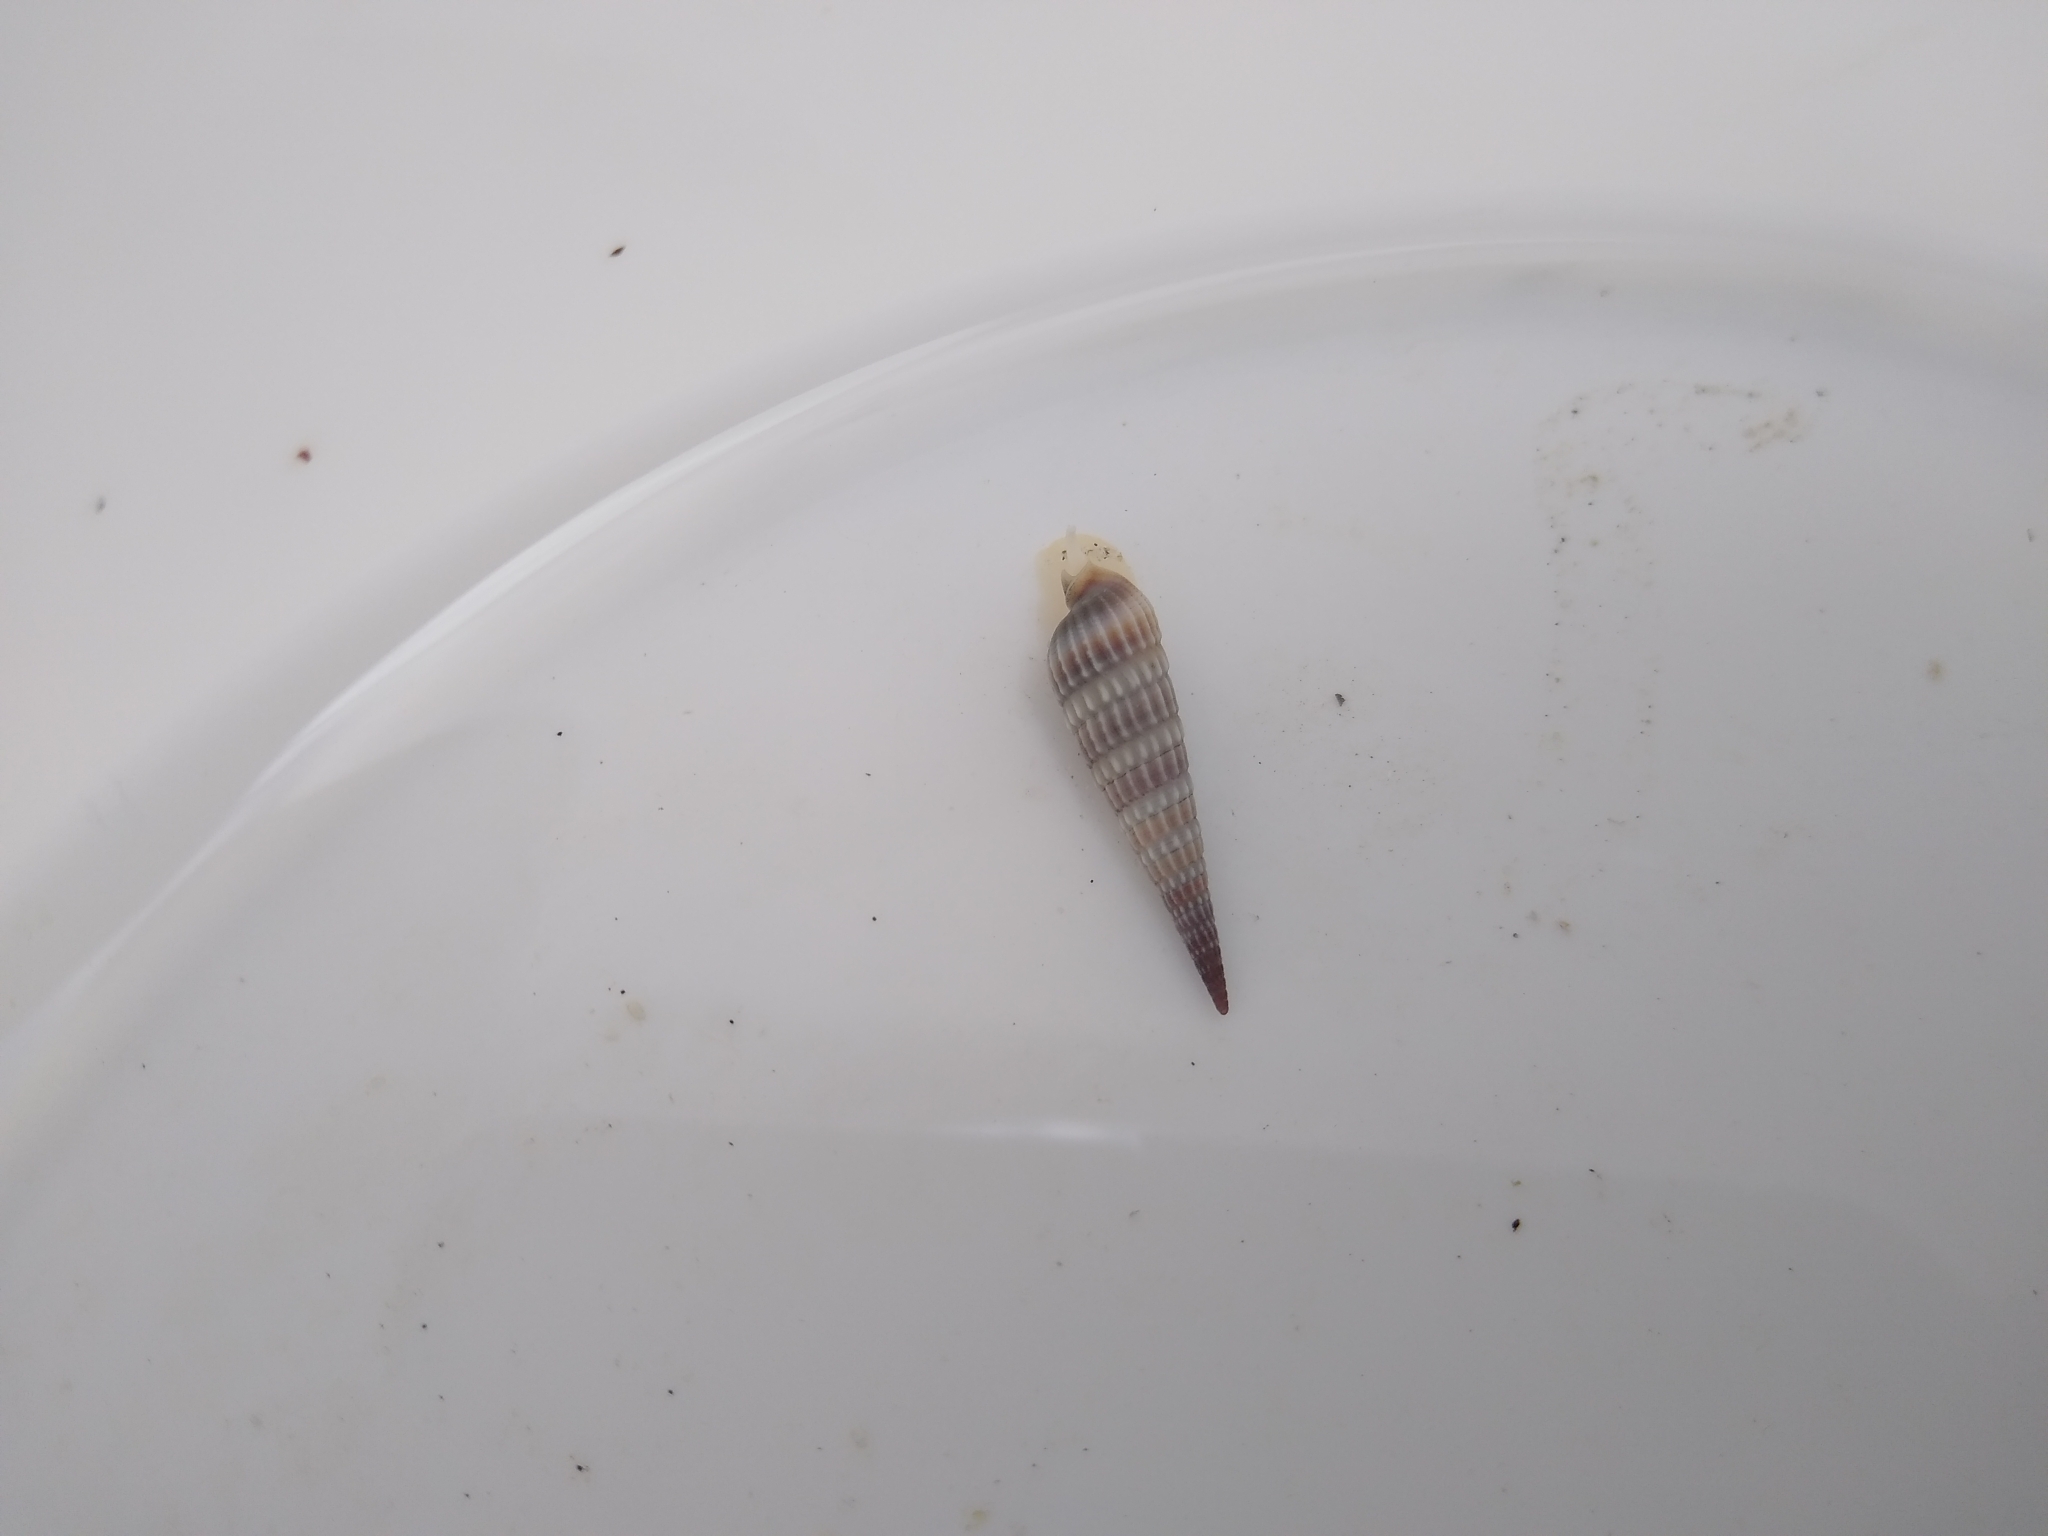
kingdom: Animalia
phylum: Mollusca
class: Gastropoda
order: Neogastropoda
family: Terebridae
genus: Neoterebra
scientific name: Neoterebra dislocata
